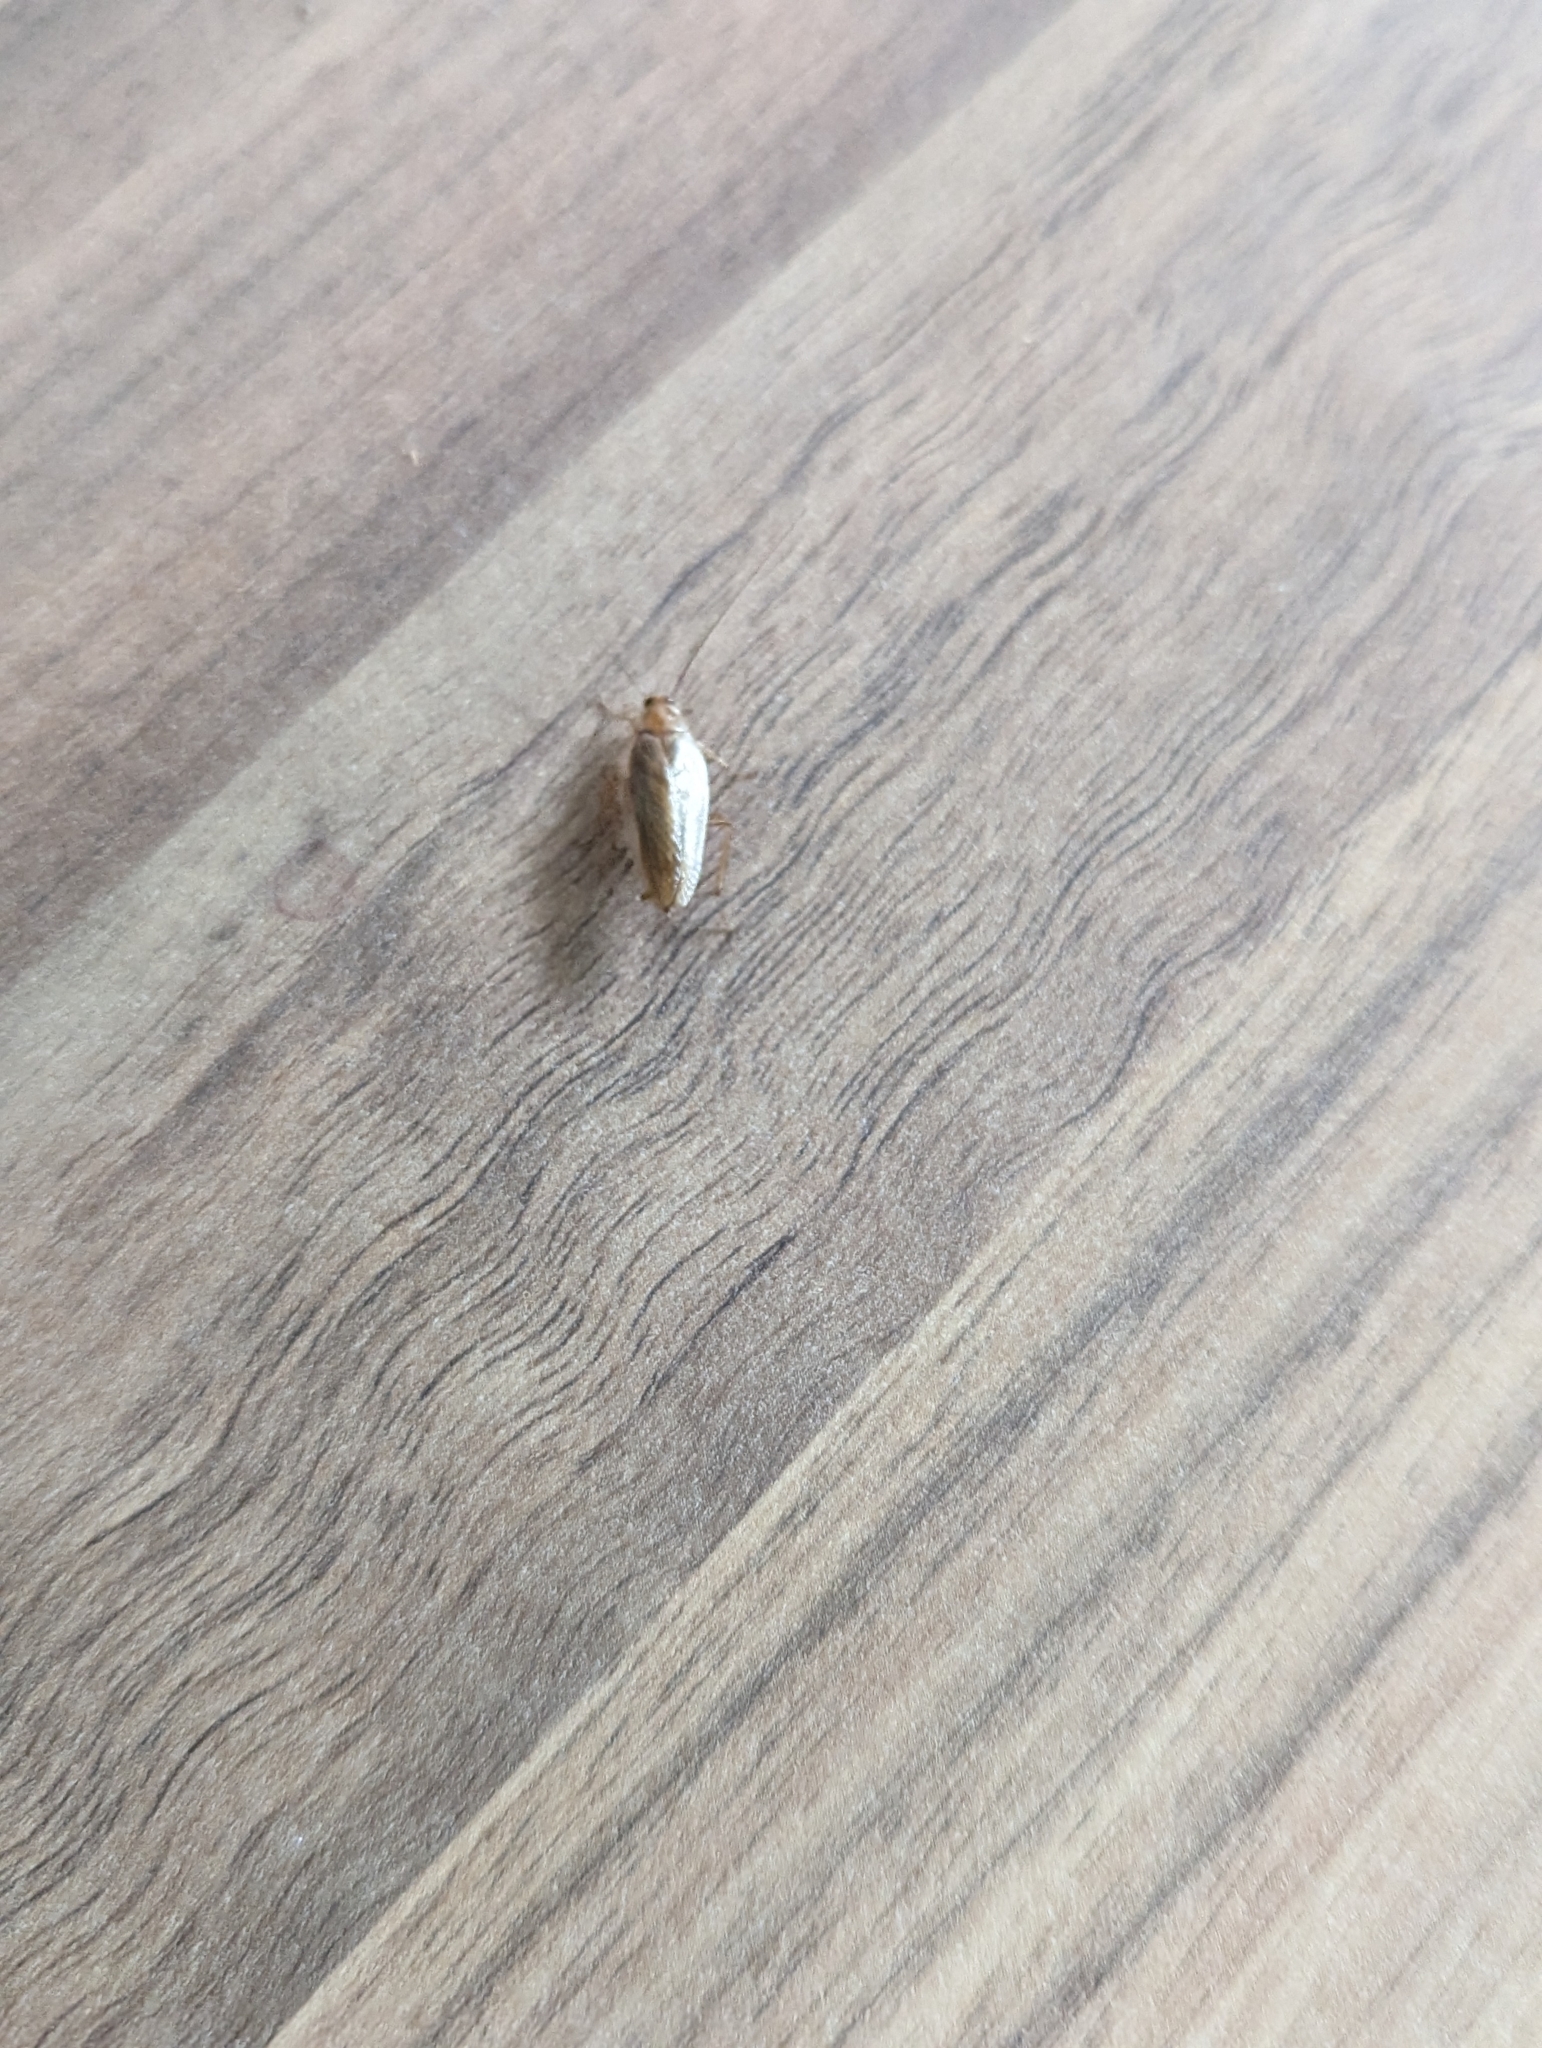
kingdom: Animalia
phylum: Arthropoda
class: Insecta
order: Blattodea
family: Ectobiidae
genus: Ectobius
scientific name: Ectobius pallidus
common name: Tawny cockroach
